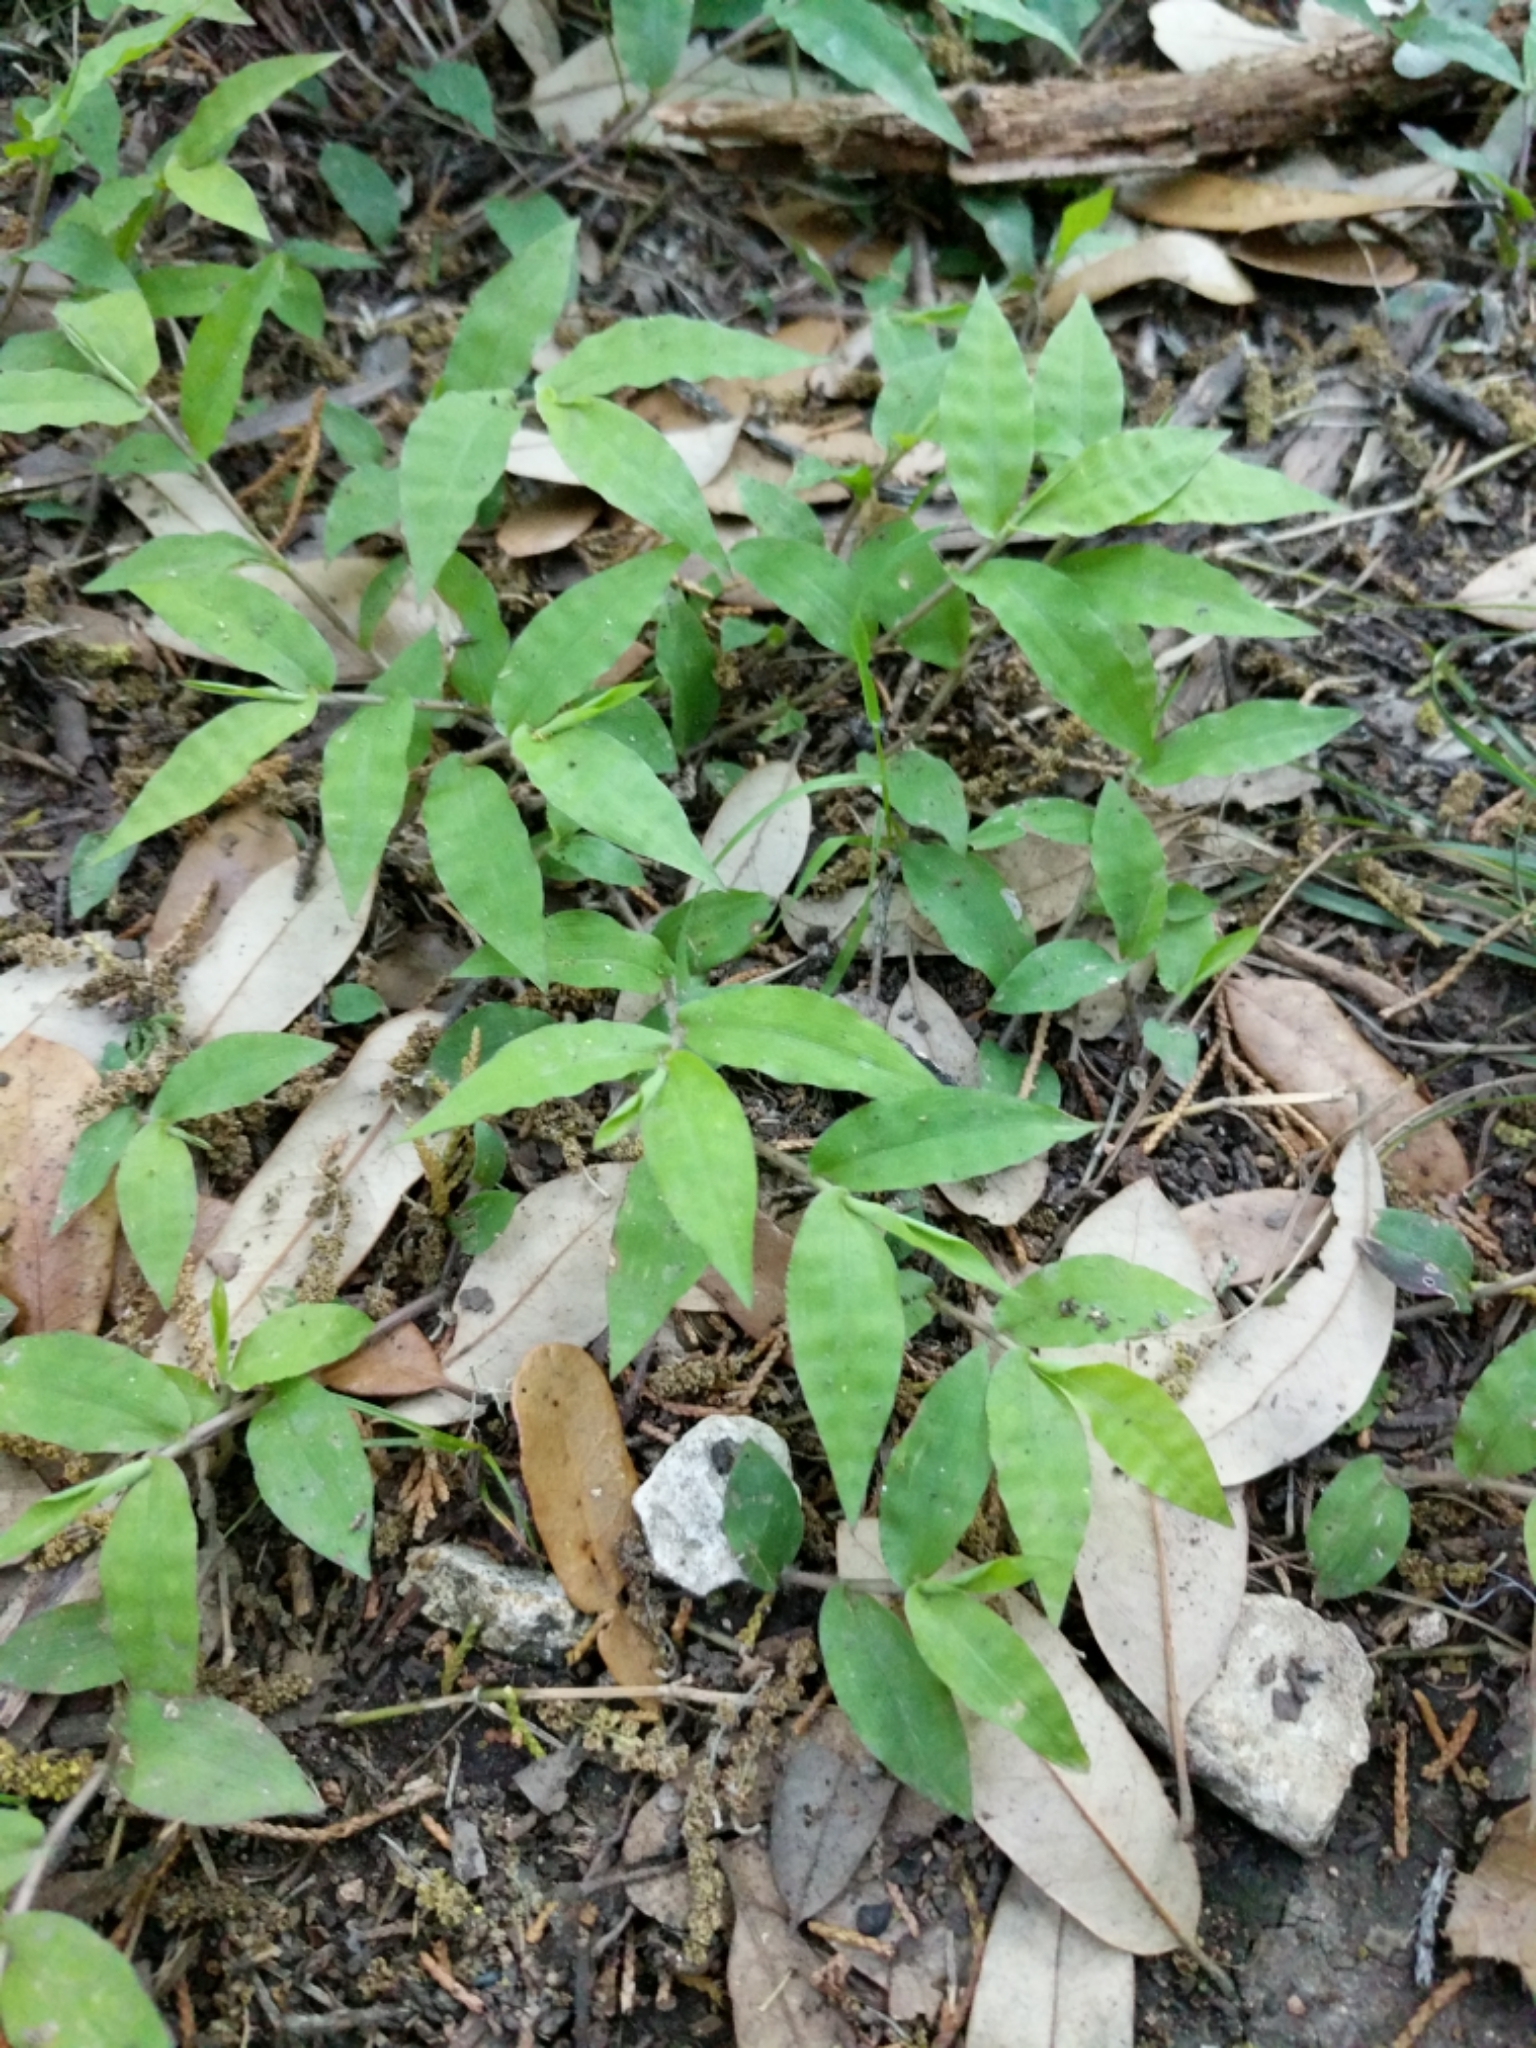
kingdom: Plantae
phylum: Tracheophyta
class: Liliopsida
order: Poales
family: Poaceae
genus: Oplismenus
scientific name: Oplismenus hirtellus
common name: Basketgrass
